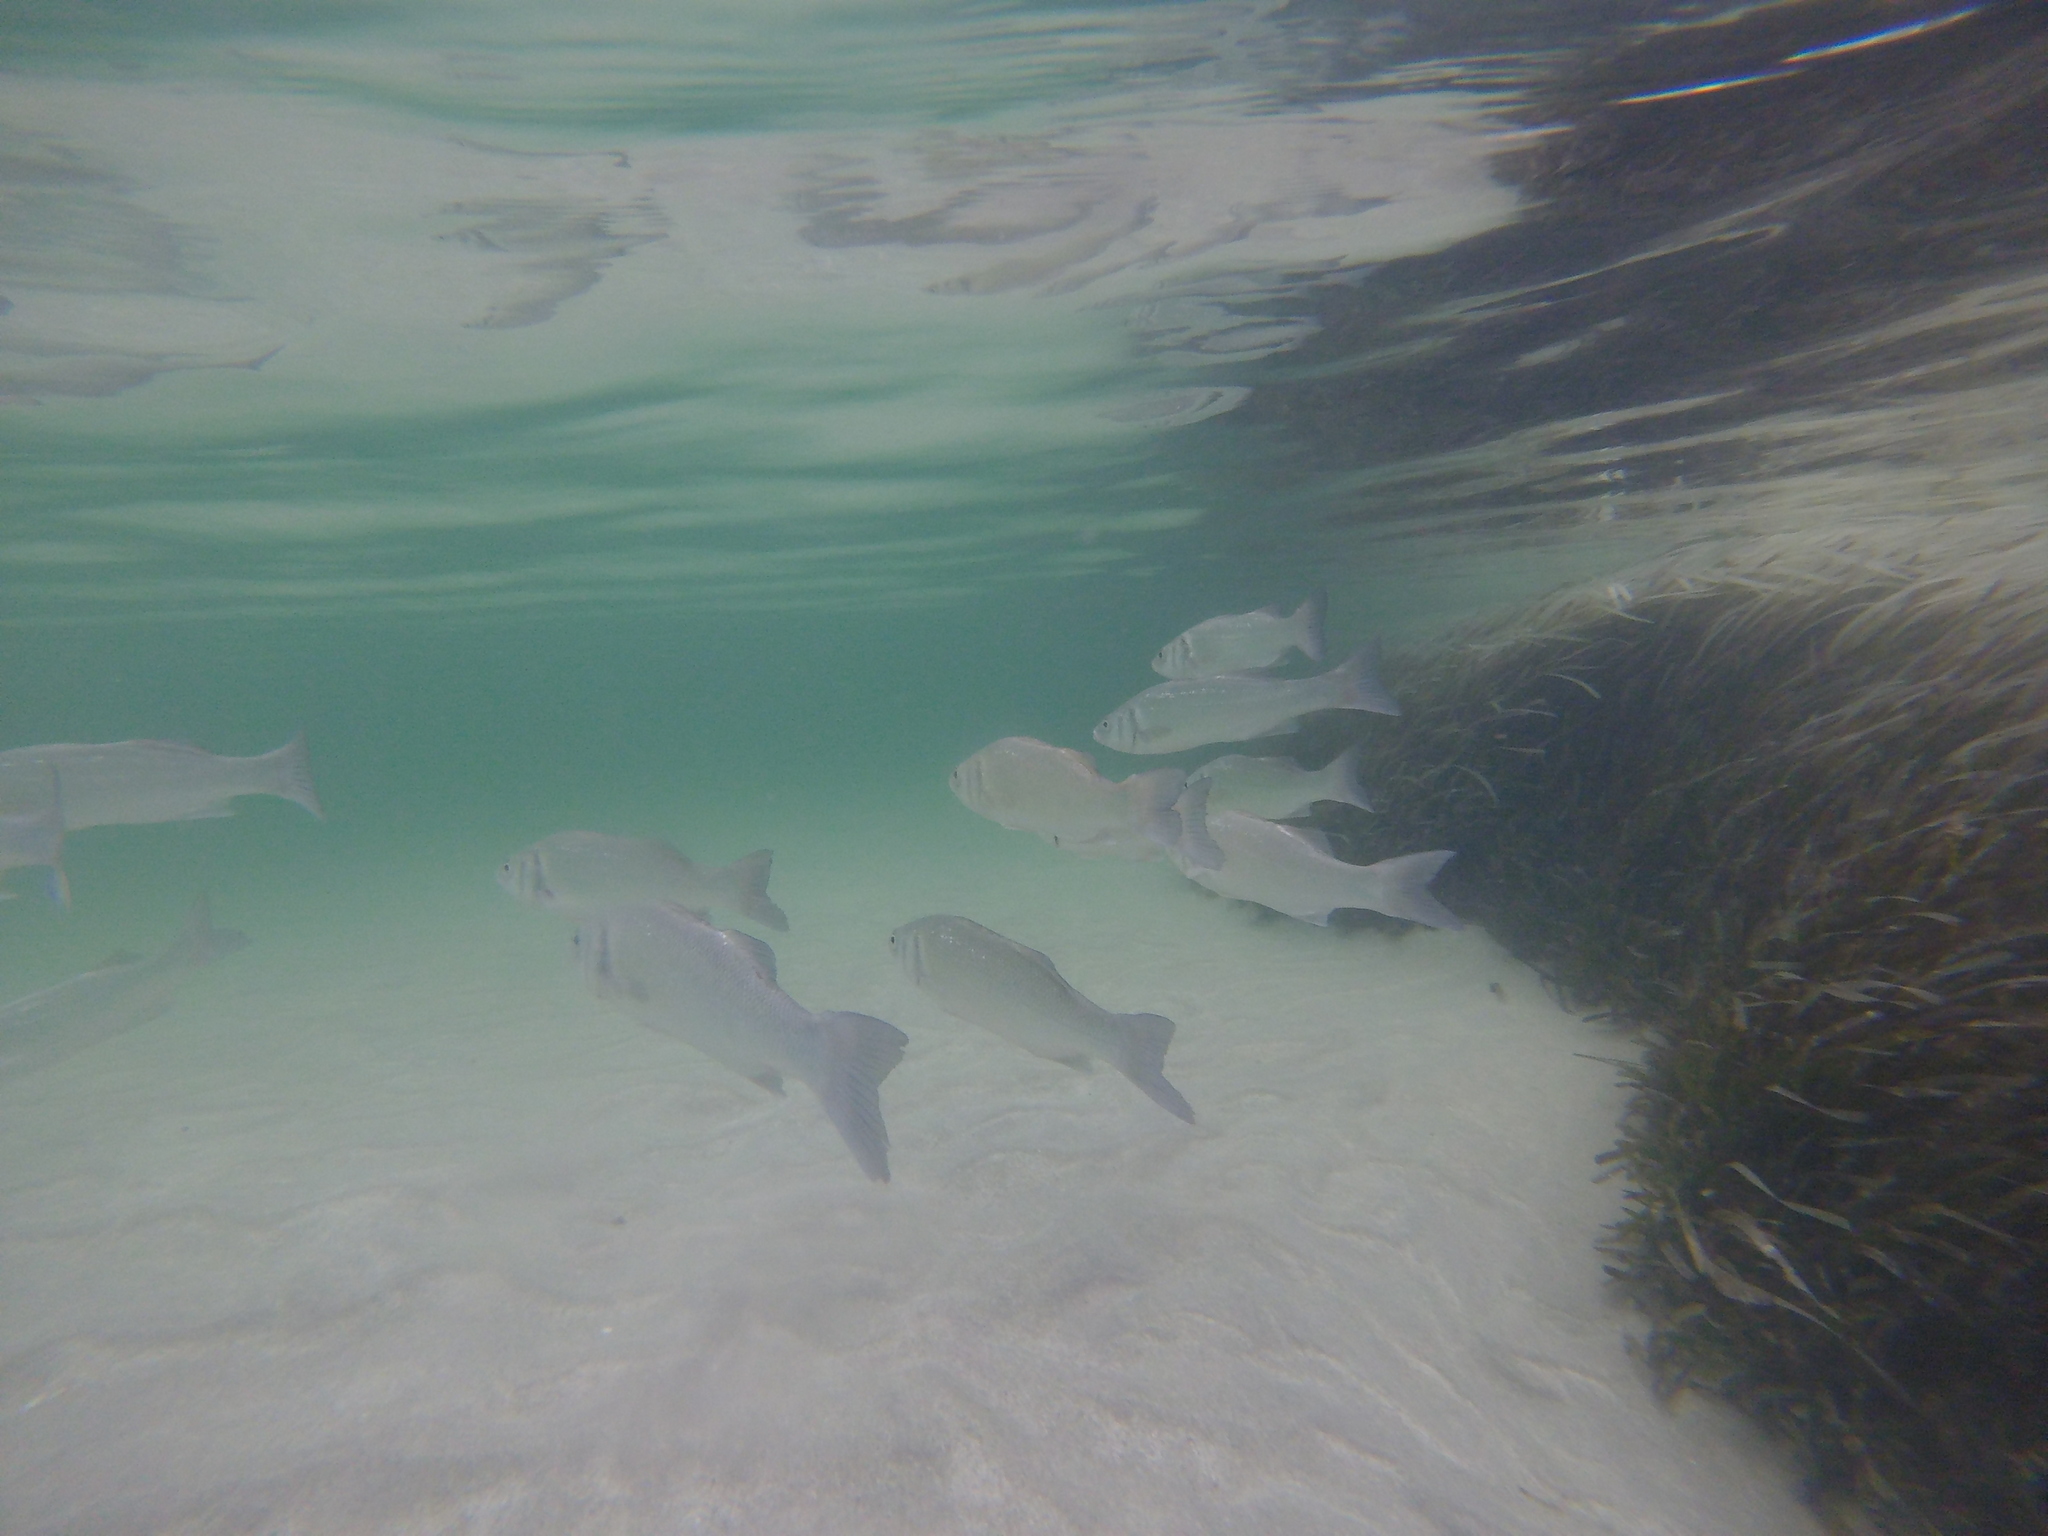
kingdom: Animalia
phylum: Chordata
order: Perciformes
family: Moronidae
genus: Dicentrarchus
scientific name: Dicentrarchus labrax
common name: European seabass
